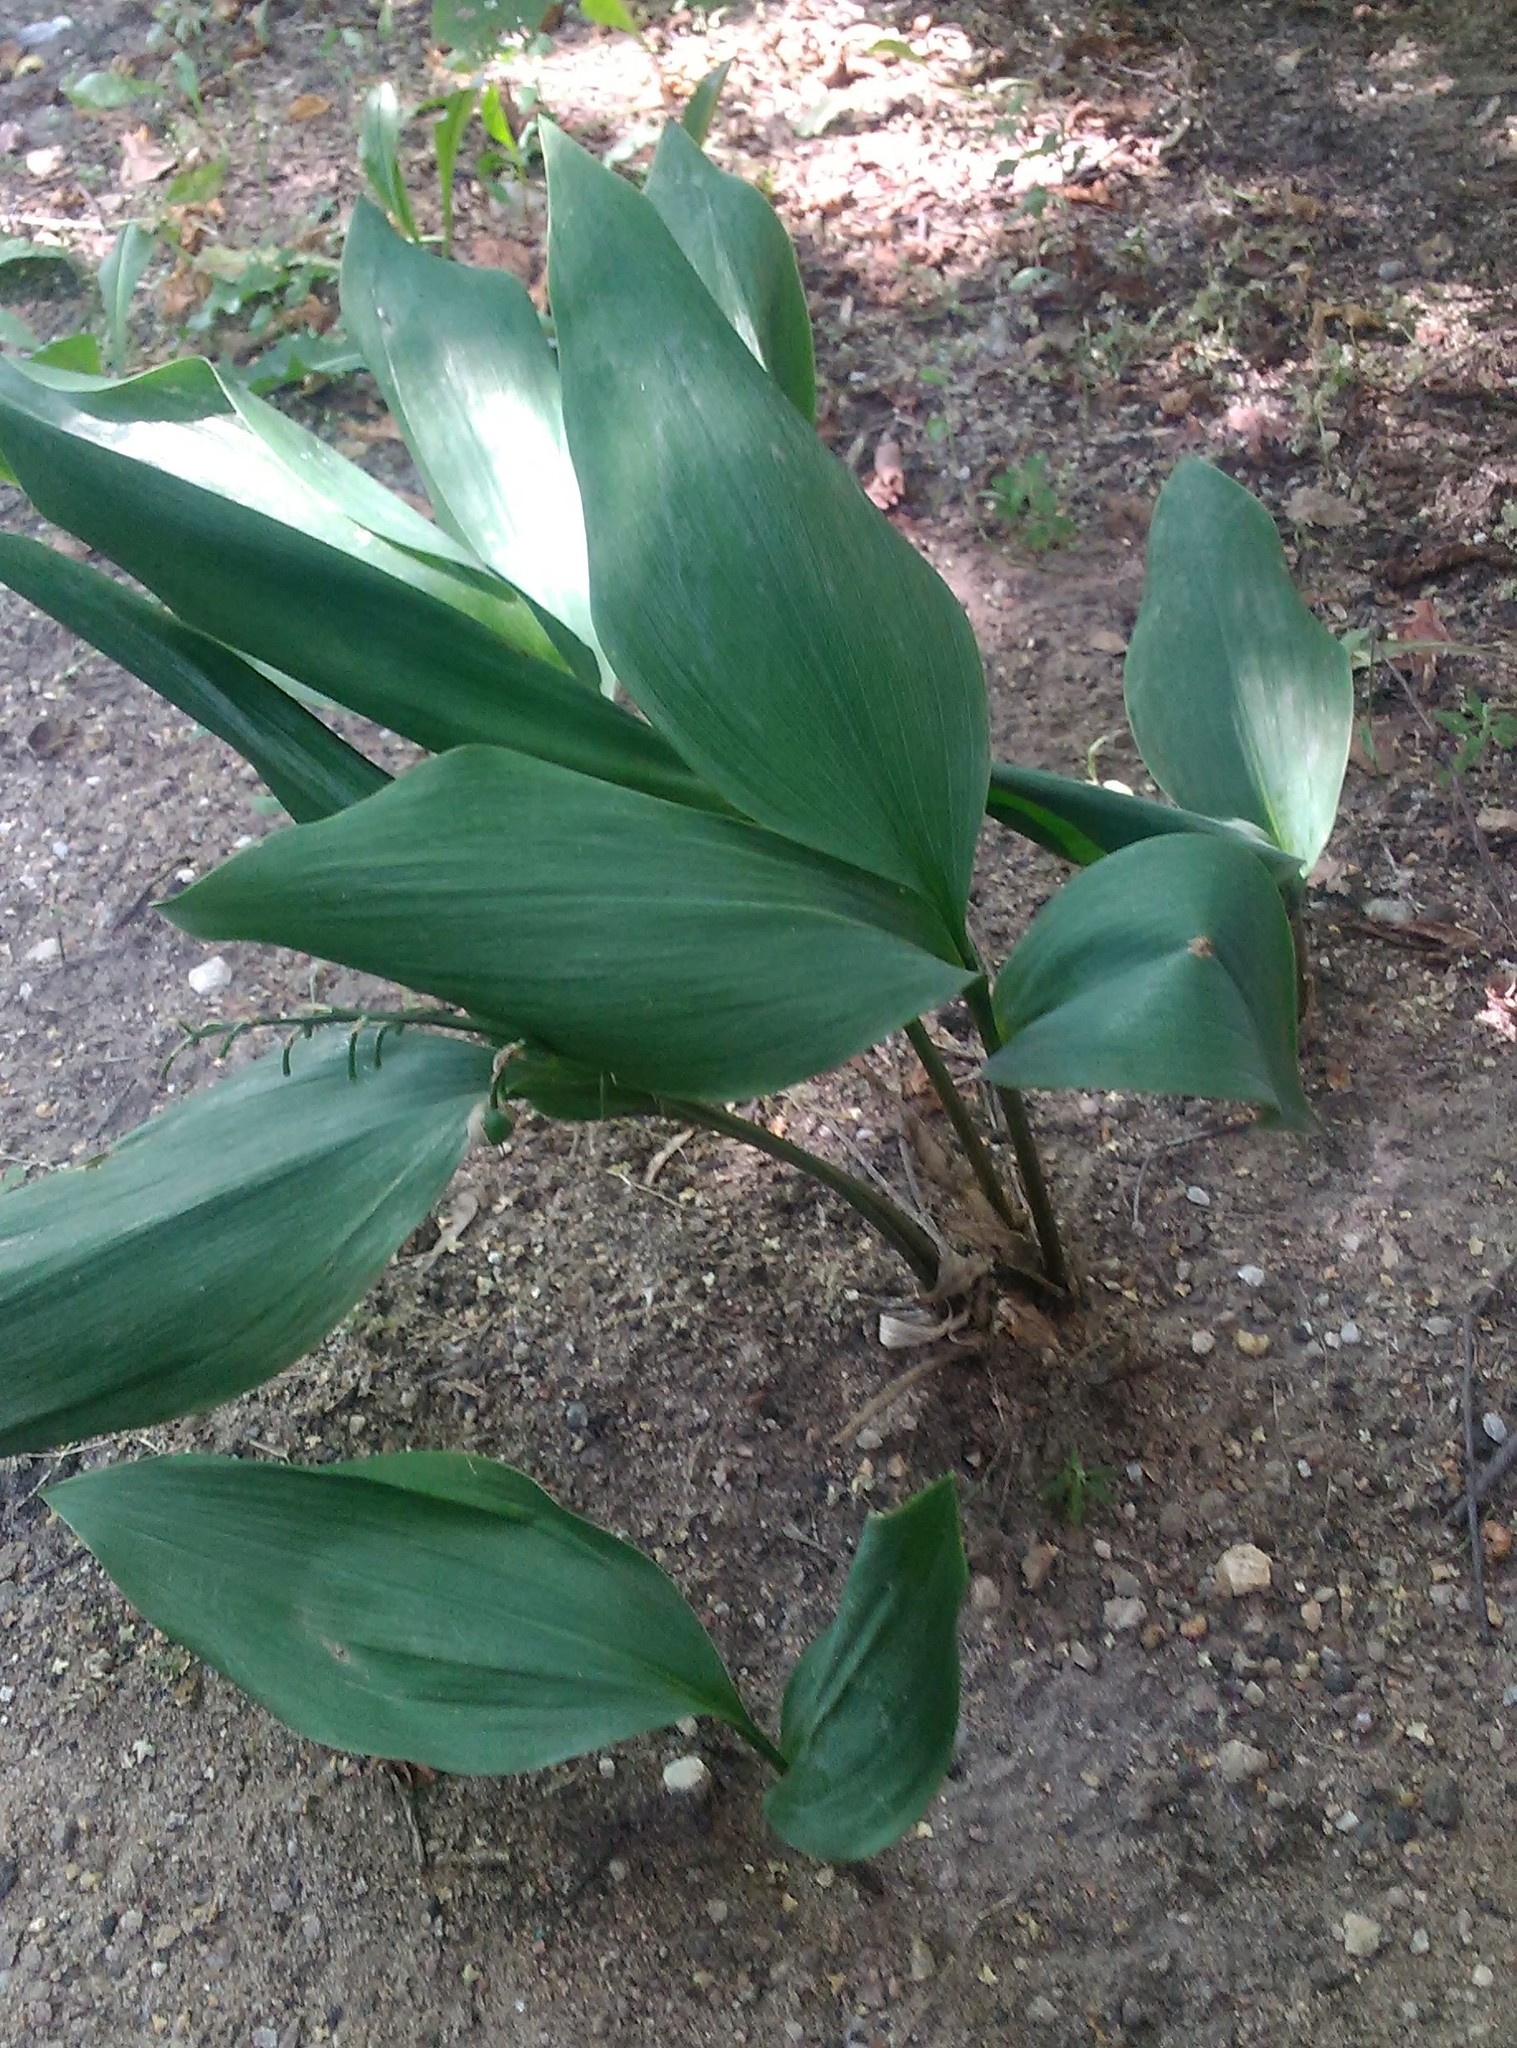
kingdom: Plantae
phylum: Tracheophyta
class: Liliopsida
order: Asparagales
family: Asparagaceae
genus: Convallaria
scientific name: Convallaria majalis
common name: Lily-of-the-valley
